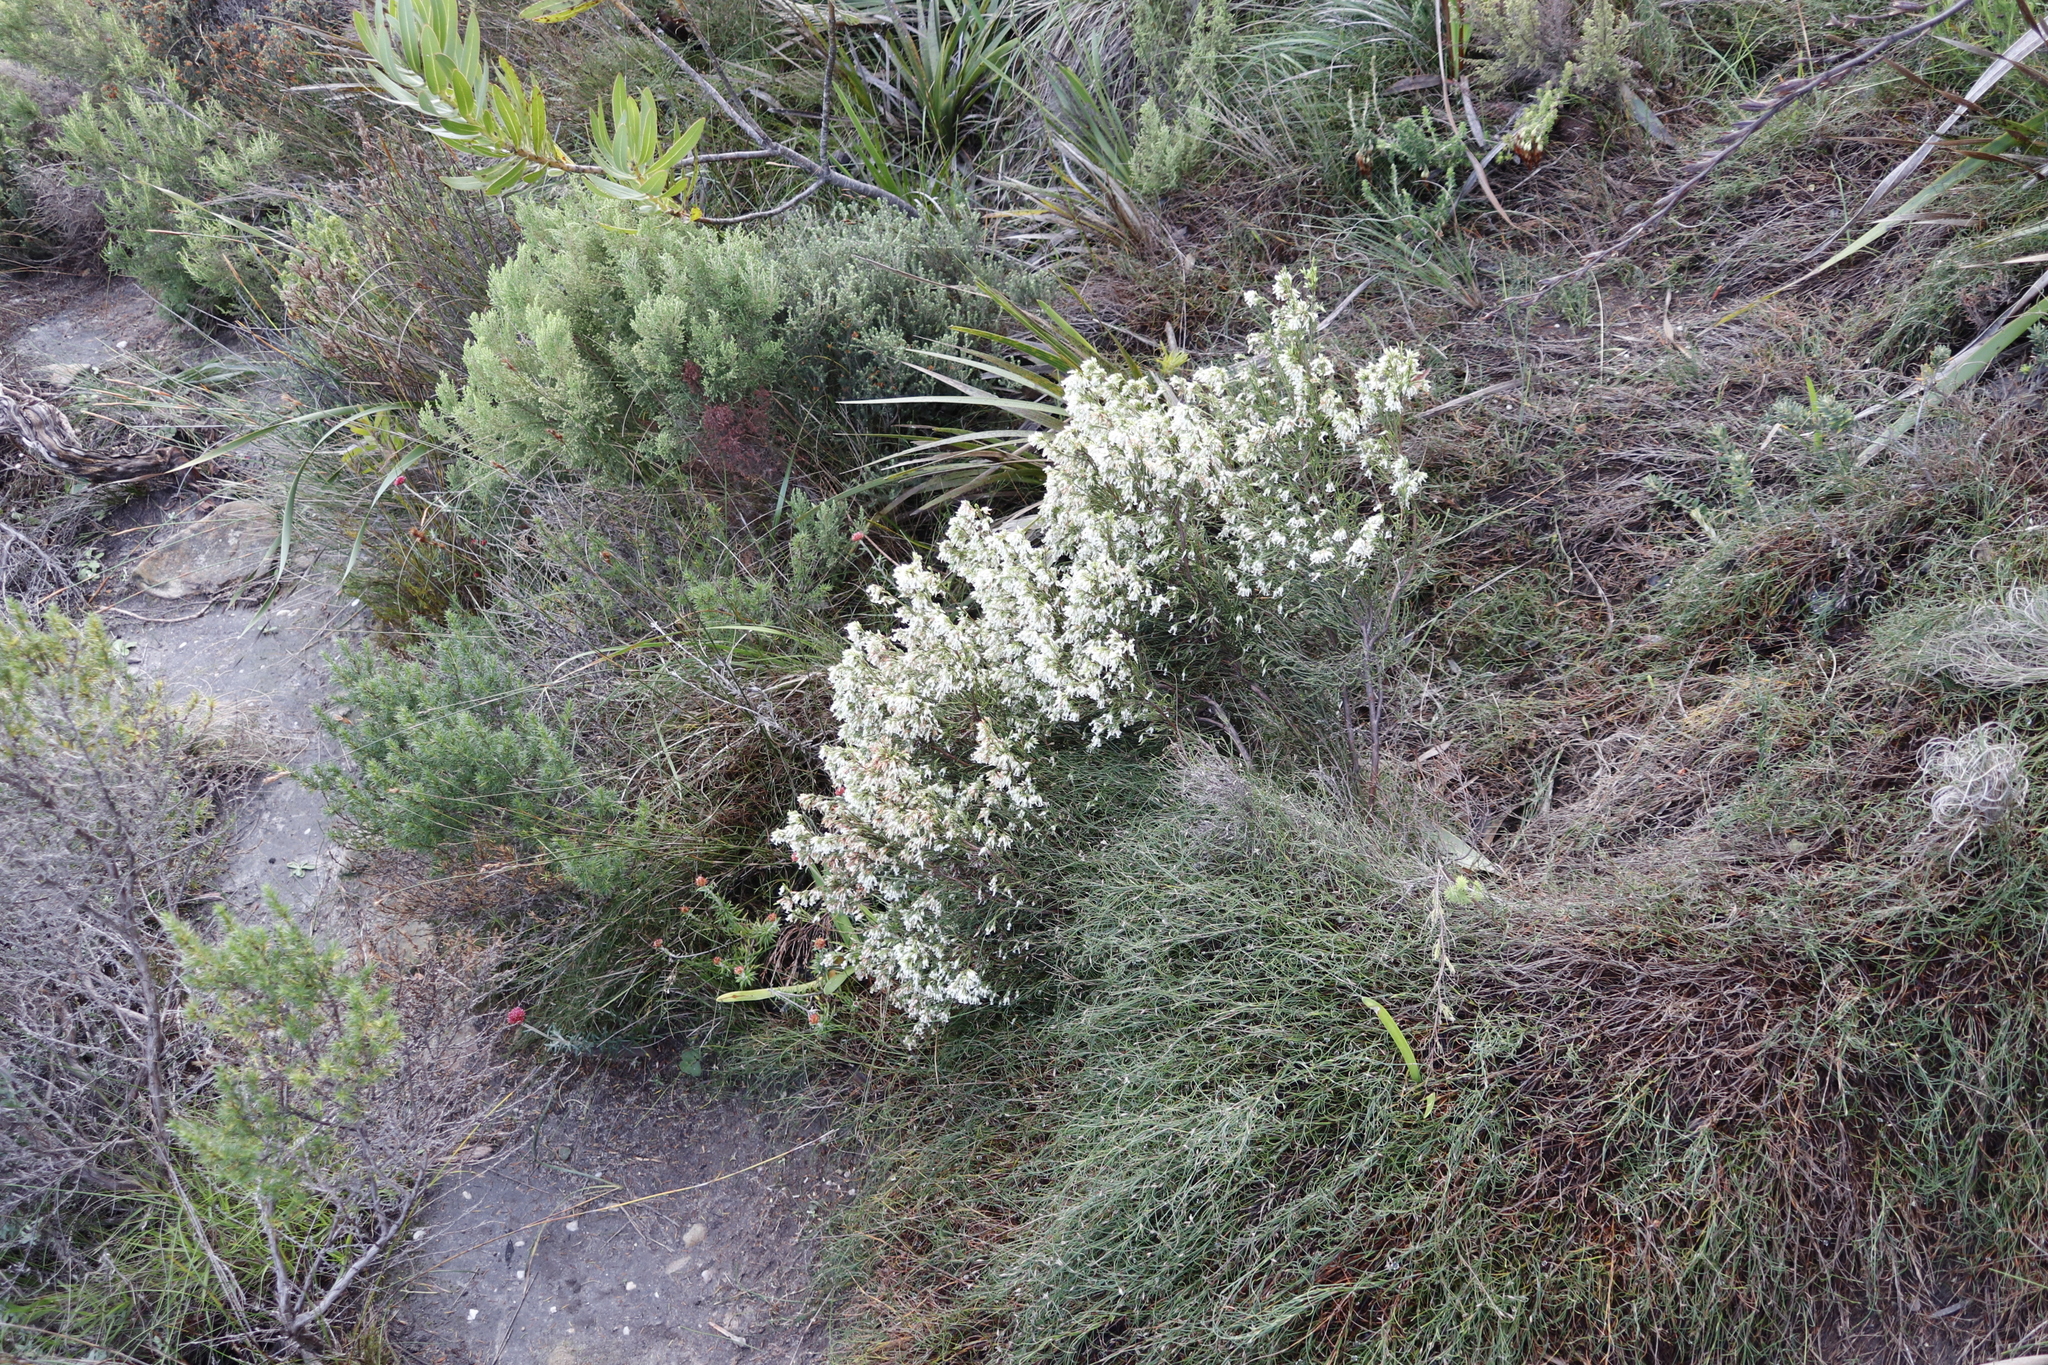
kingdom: Plantae
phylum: Tracheophyta
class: Magnoliopsida
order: Ericales
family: Ericaceae
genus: Erica
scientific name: Erica lutea
